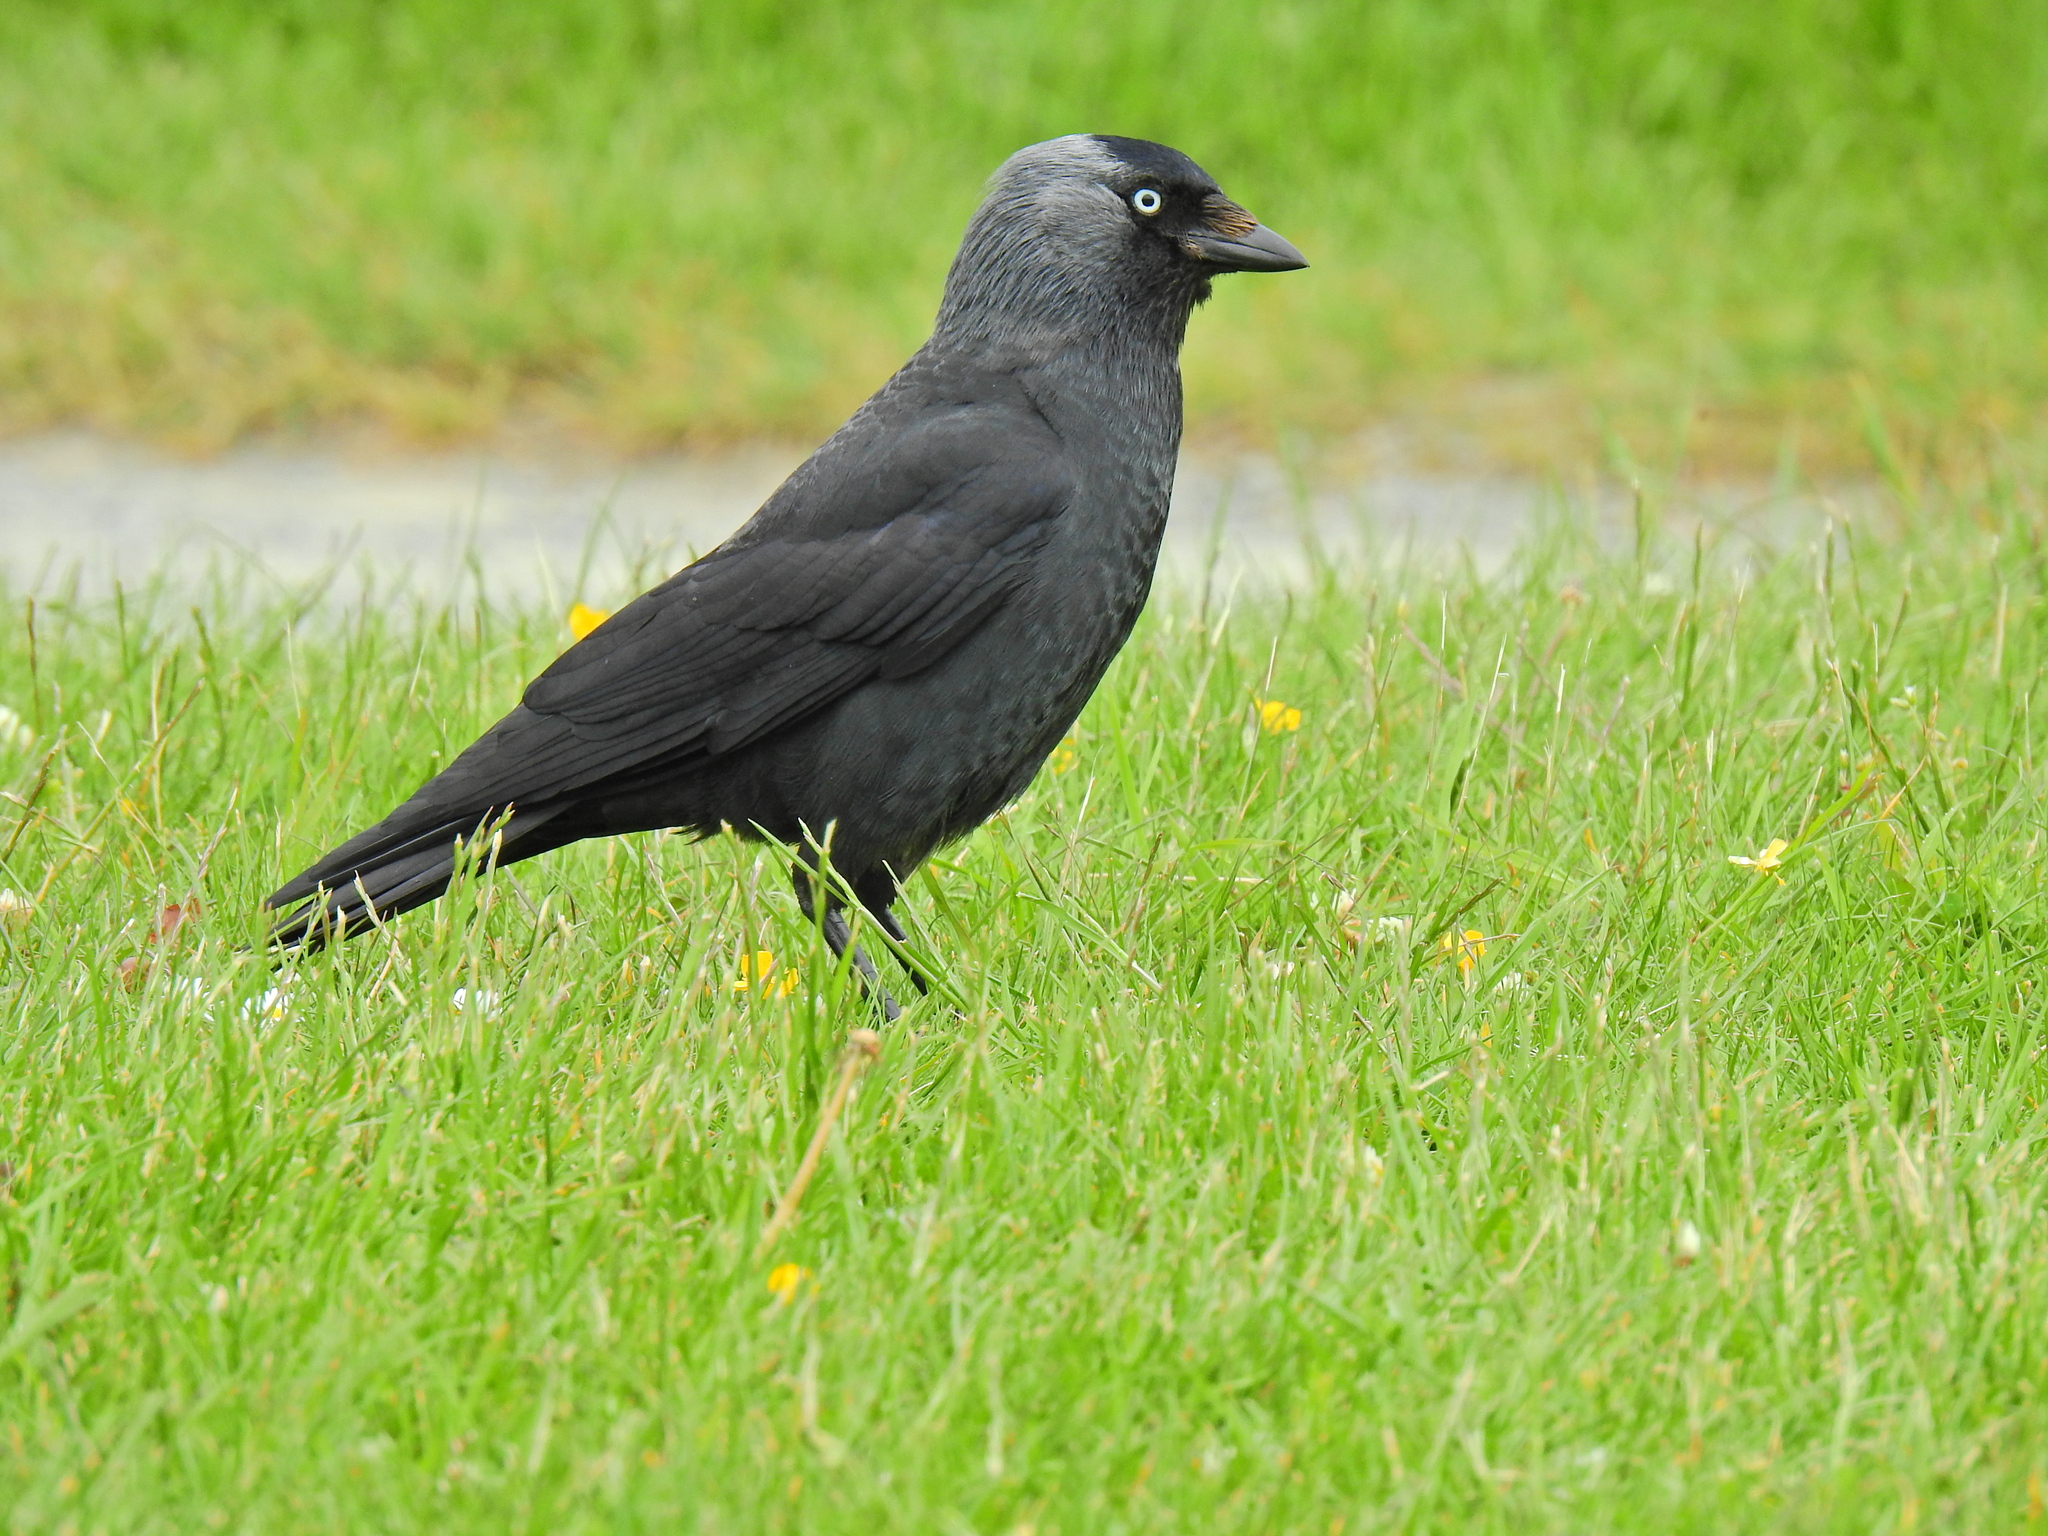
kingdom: Animalia
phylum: Chordata
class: Aves
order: Passeriformes
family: Corvidae
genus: Coloeus
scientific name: Coloeus monedula
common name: Western jackdaw
